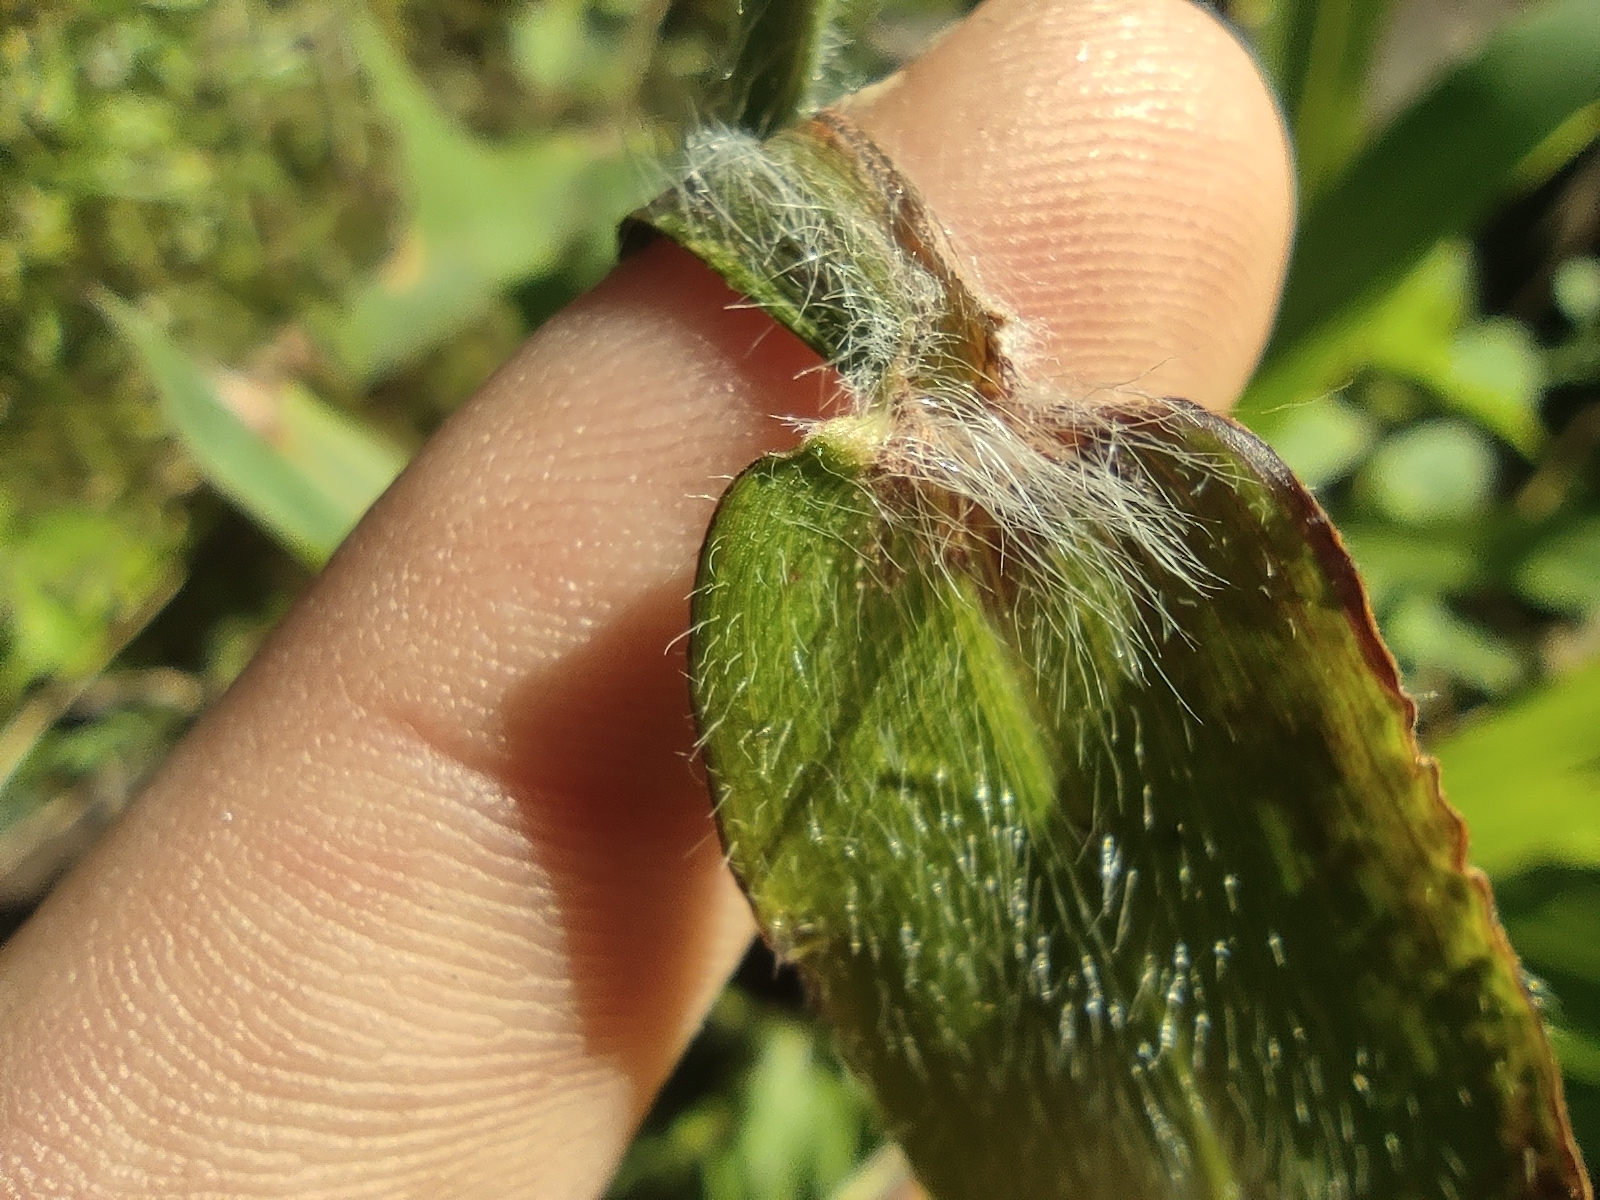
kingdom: Plantae
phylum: Tracheophyta
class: Liliopsida
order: Poales
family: Poaceae
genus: Paspalum
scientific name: Paspalum paniculatum
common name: Arrocillo
